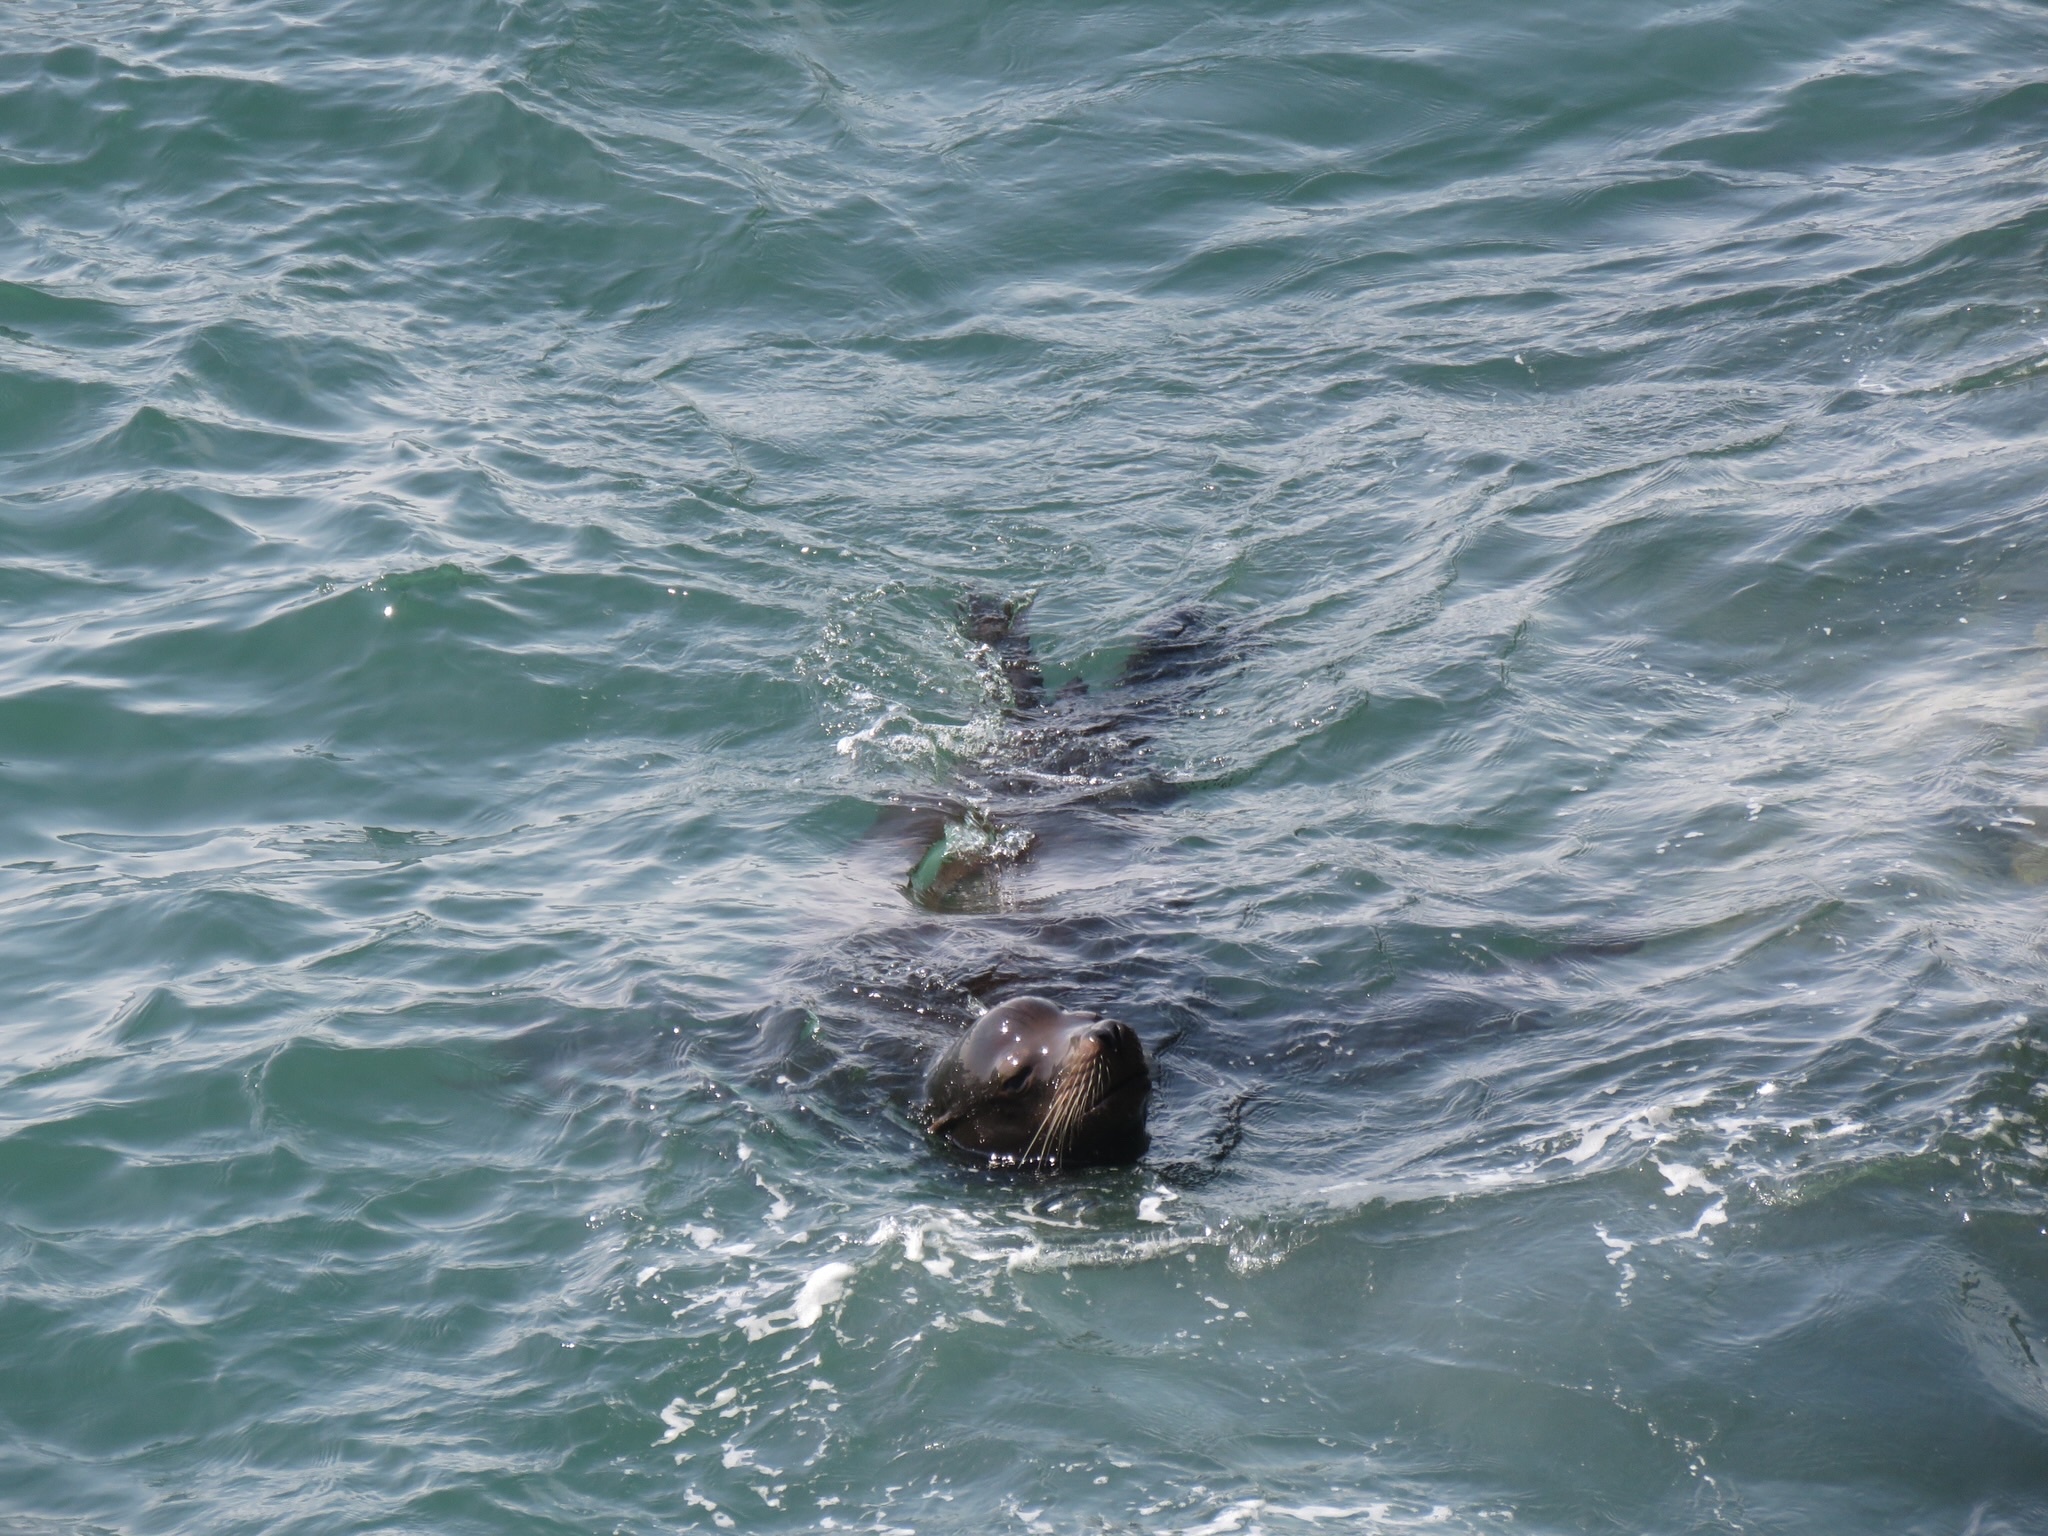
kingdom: Animalia
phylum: Chordata
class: Mammalia
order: Carnivora
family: Otariidae
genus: Zalophus
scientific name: Zalophus californianus
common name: California sea lion
